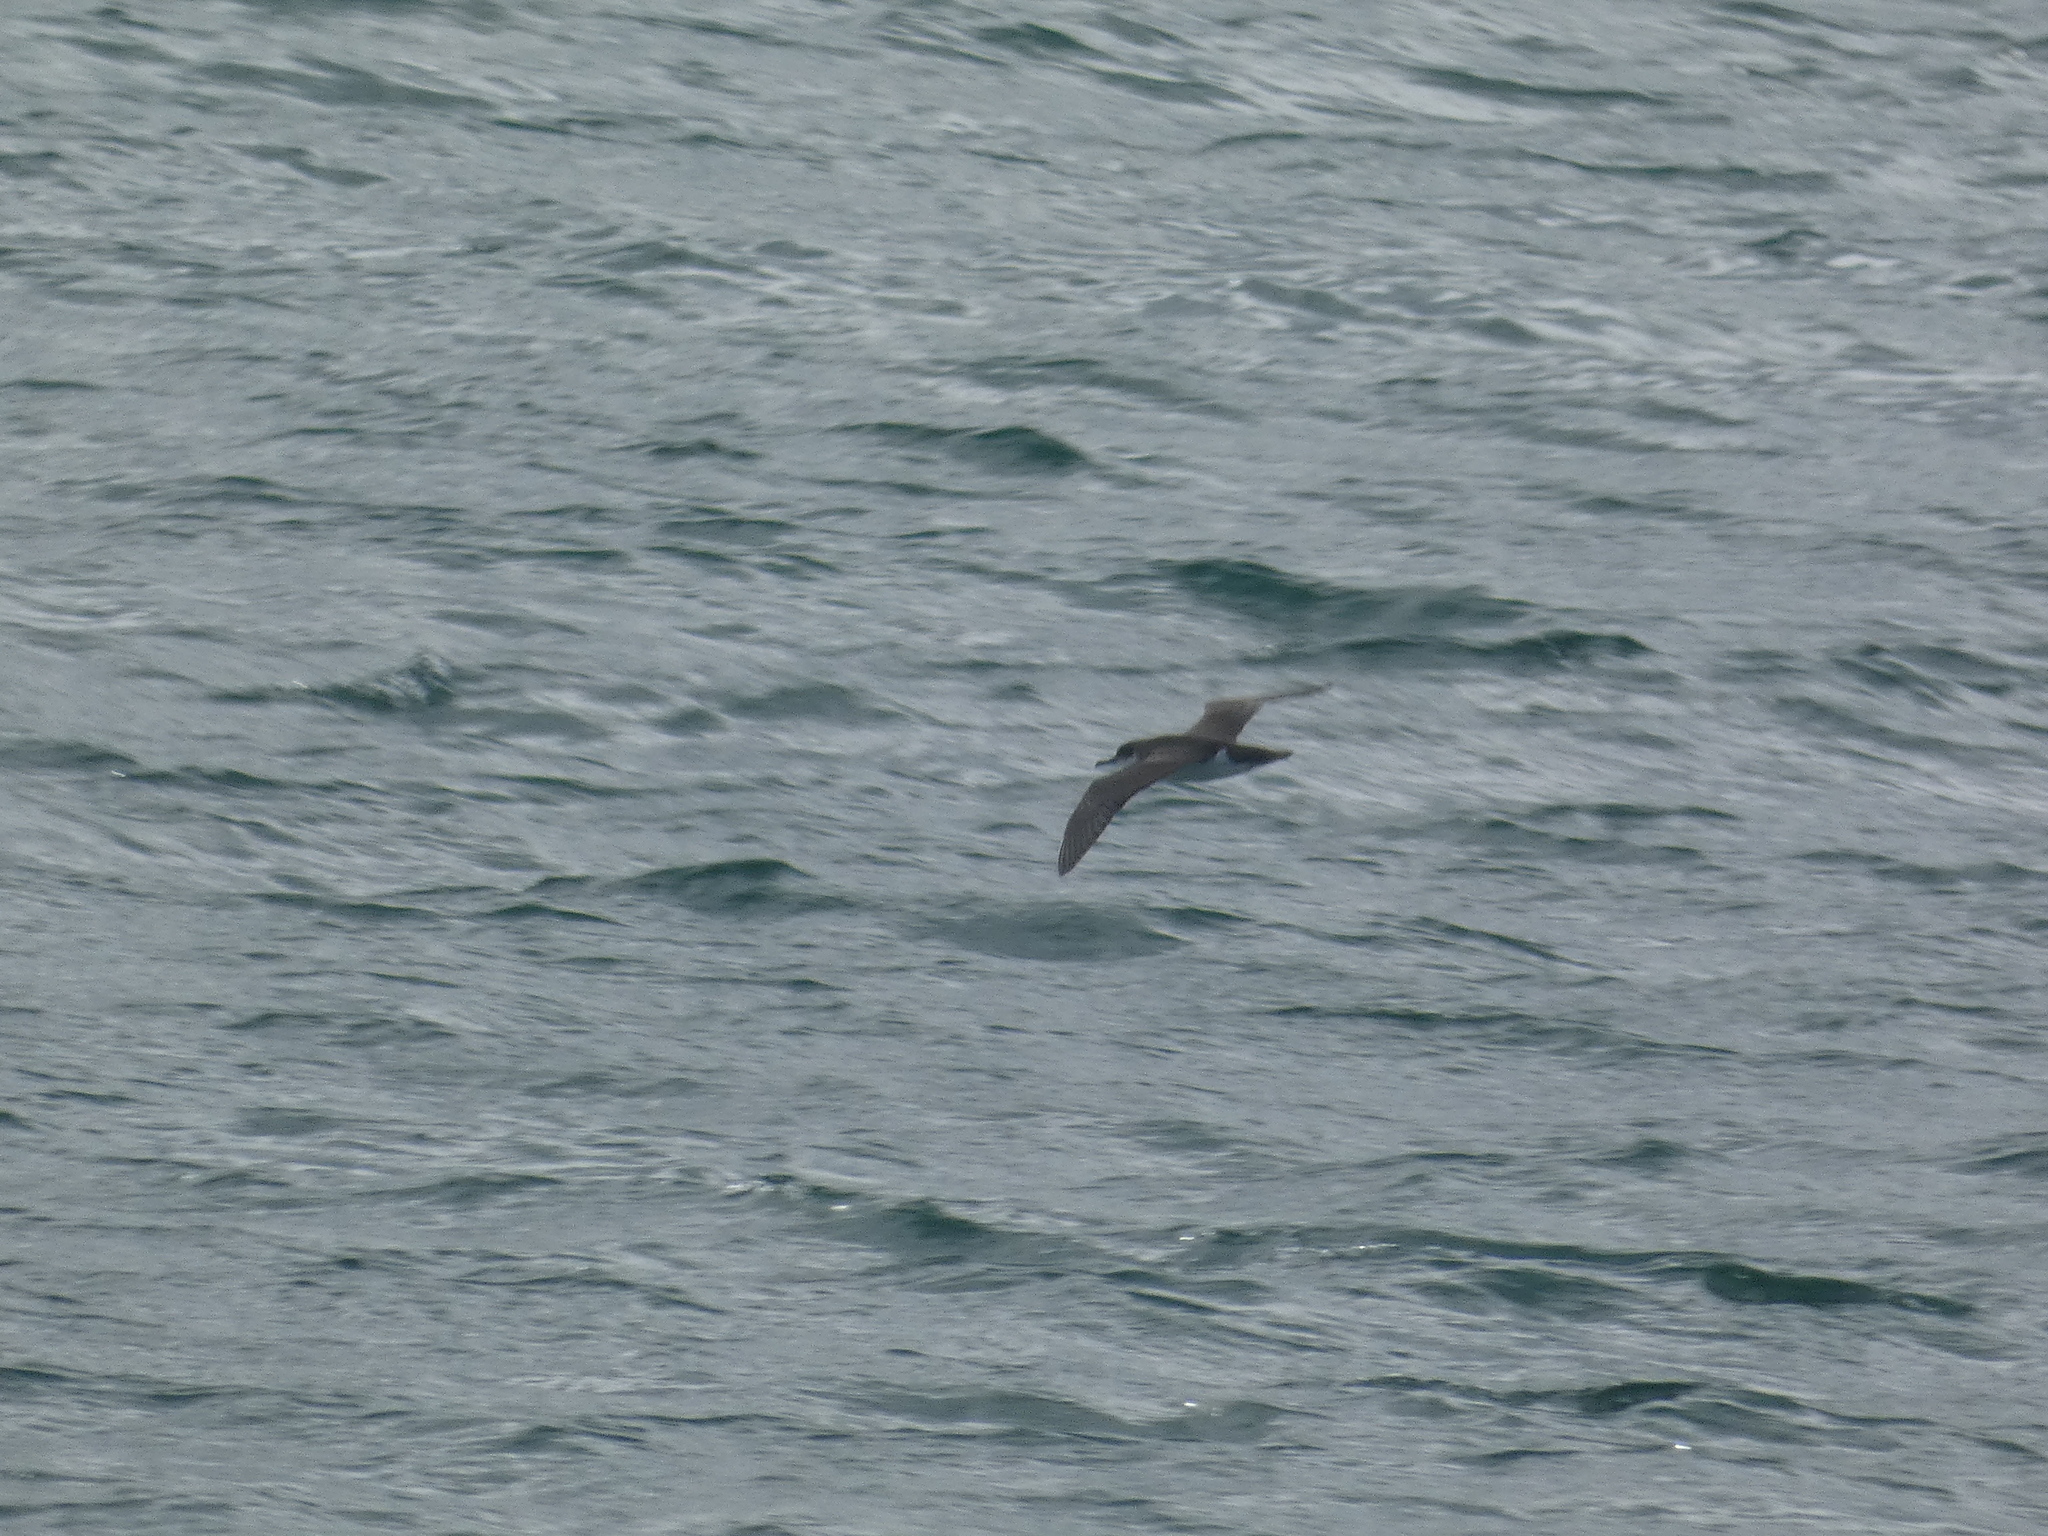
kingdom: Animalia
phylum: Chordata
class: Aves
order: Procellariiformes
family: Procellariidae
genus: Puffinus
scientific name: Puffinus puffinus
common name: Manx shearwater
